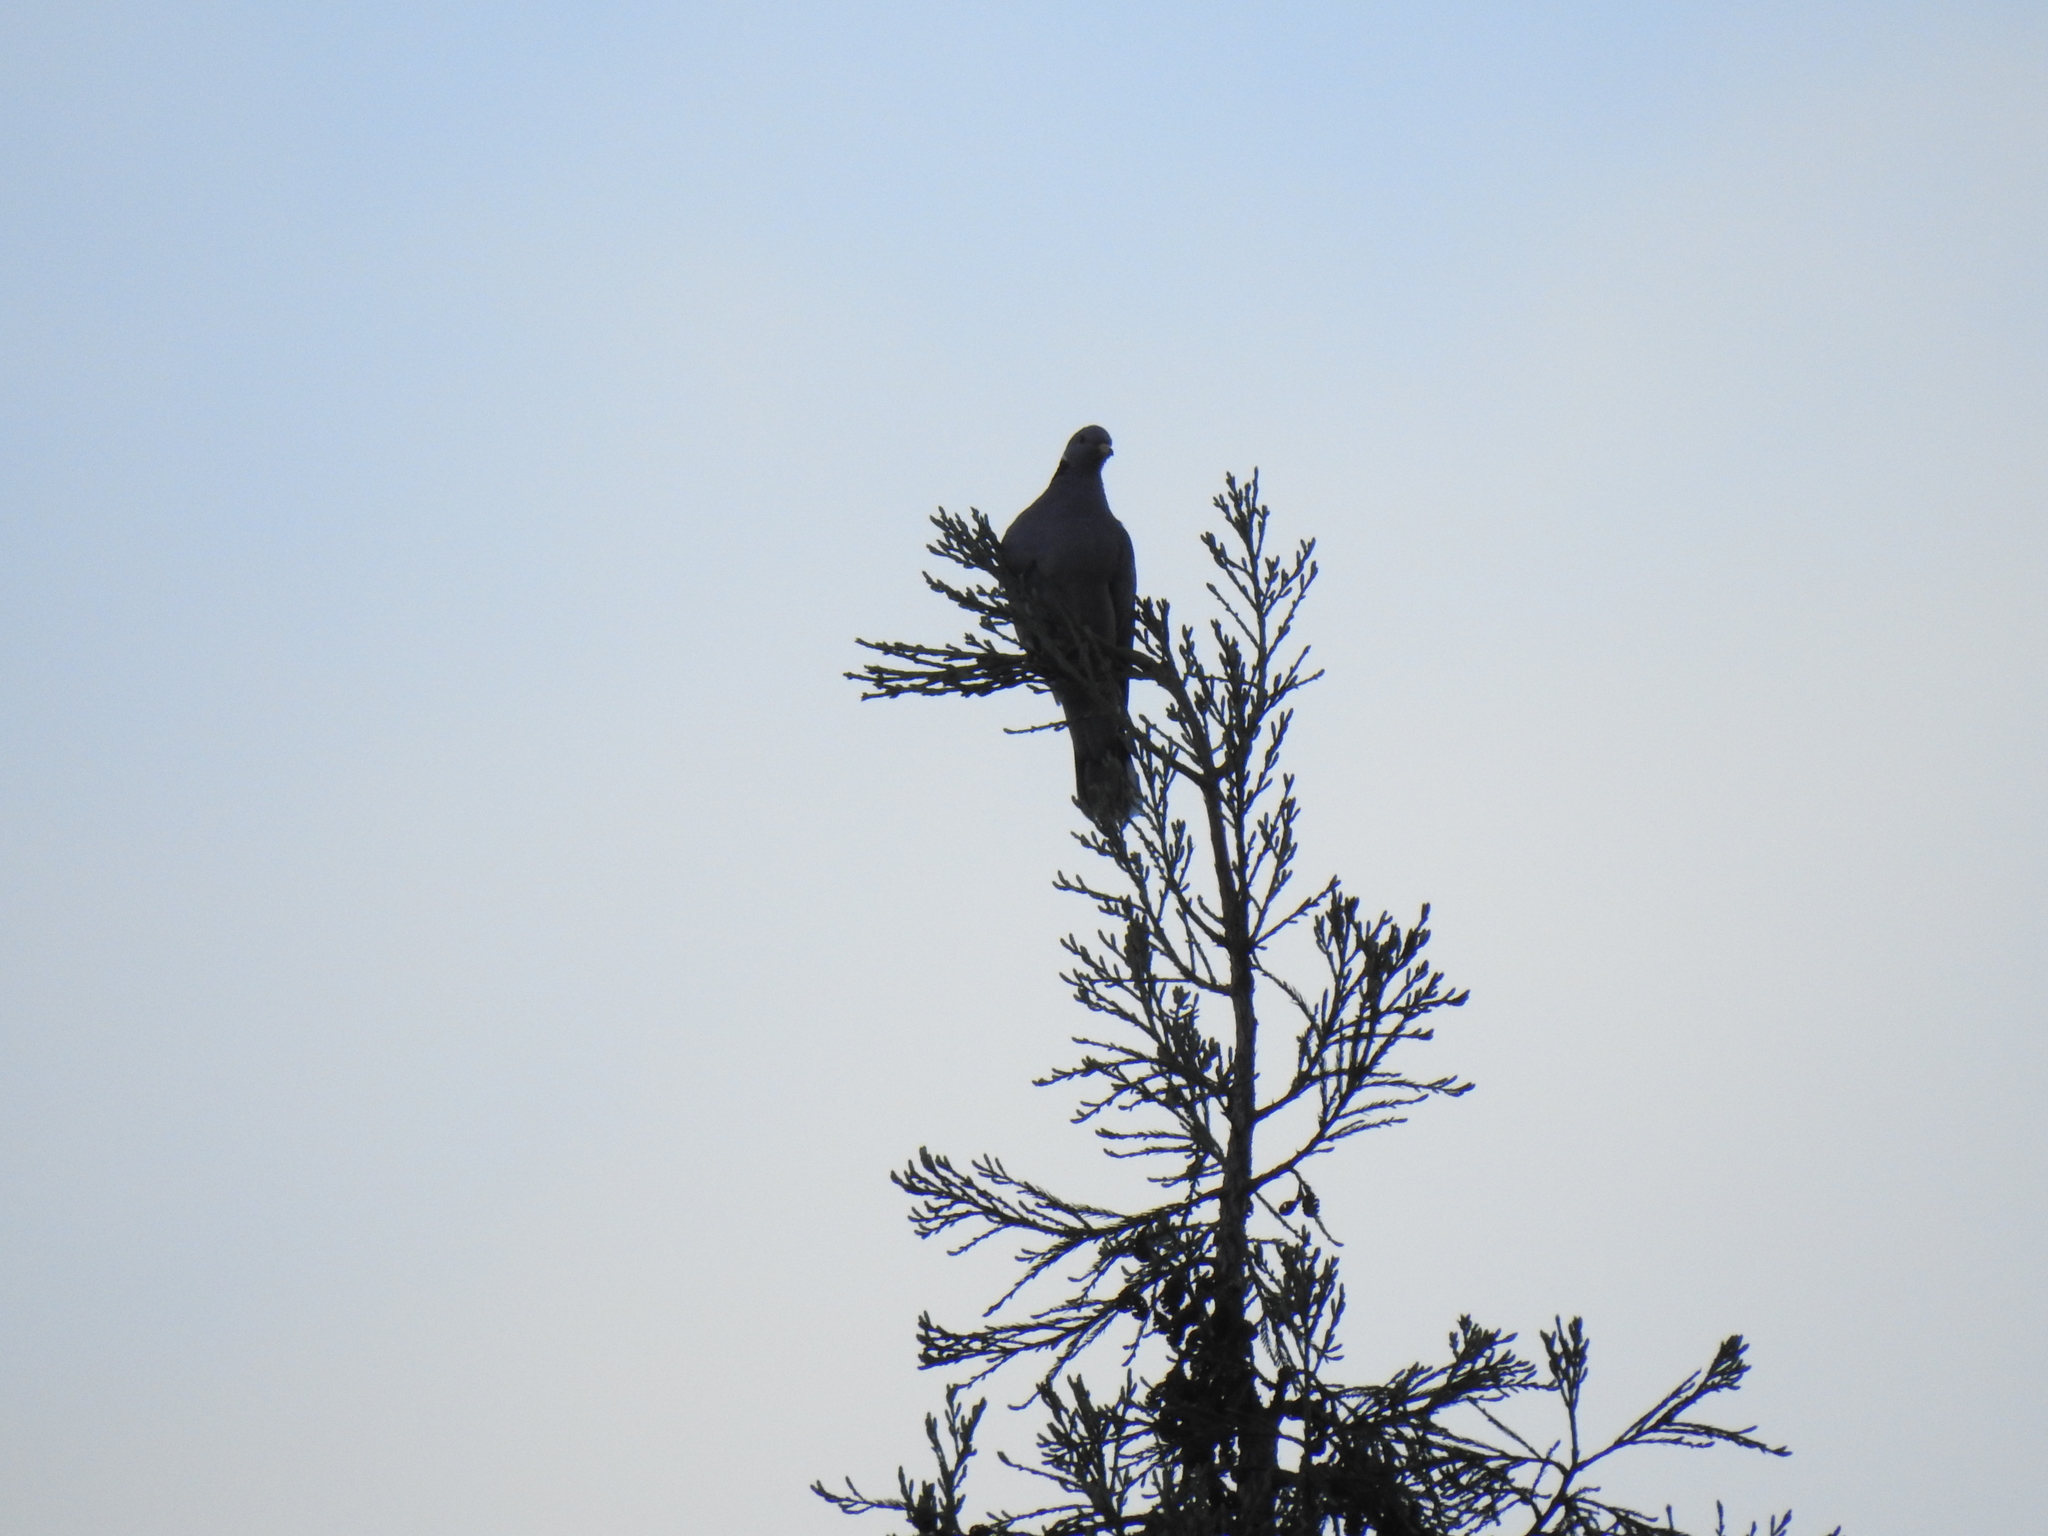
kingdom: Animalia
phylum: Chordata
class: Aves
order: Columbiformes
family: Columbidae
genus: Patagioenas
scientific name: Patagioenas fasciata
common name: Band-tailed pigeon
